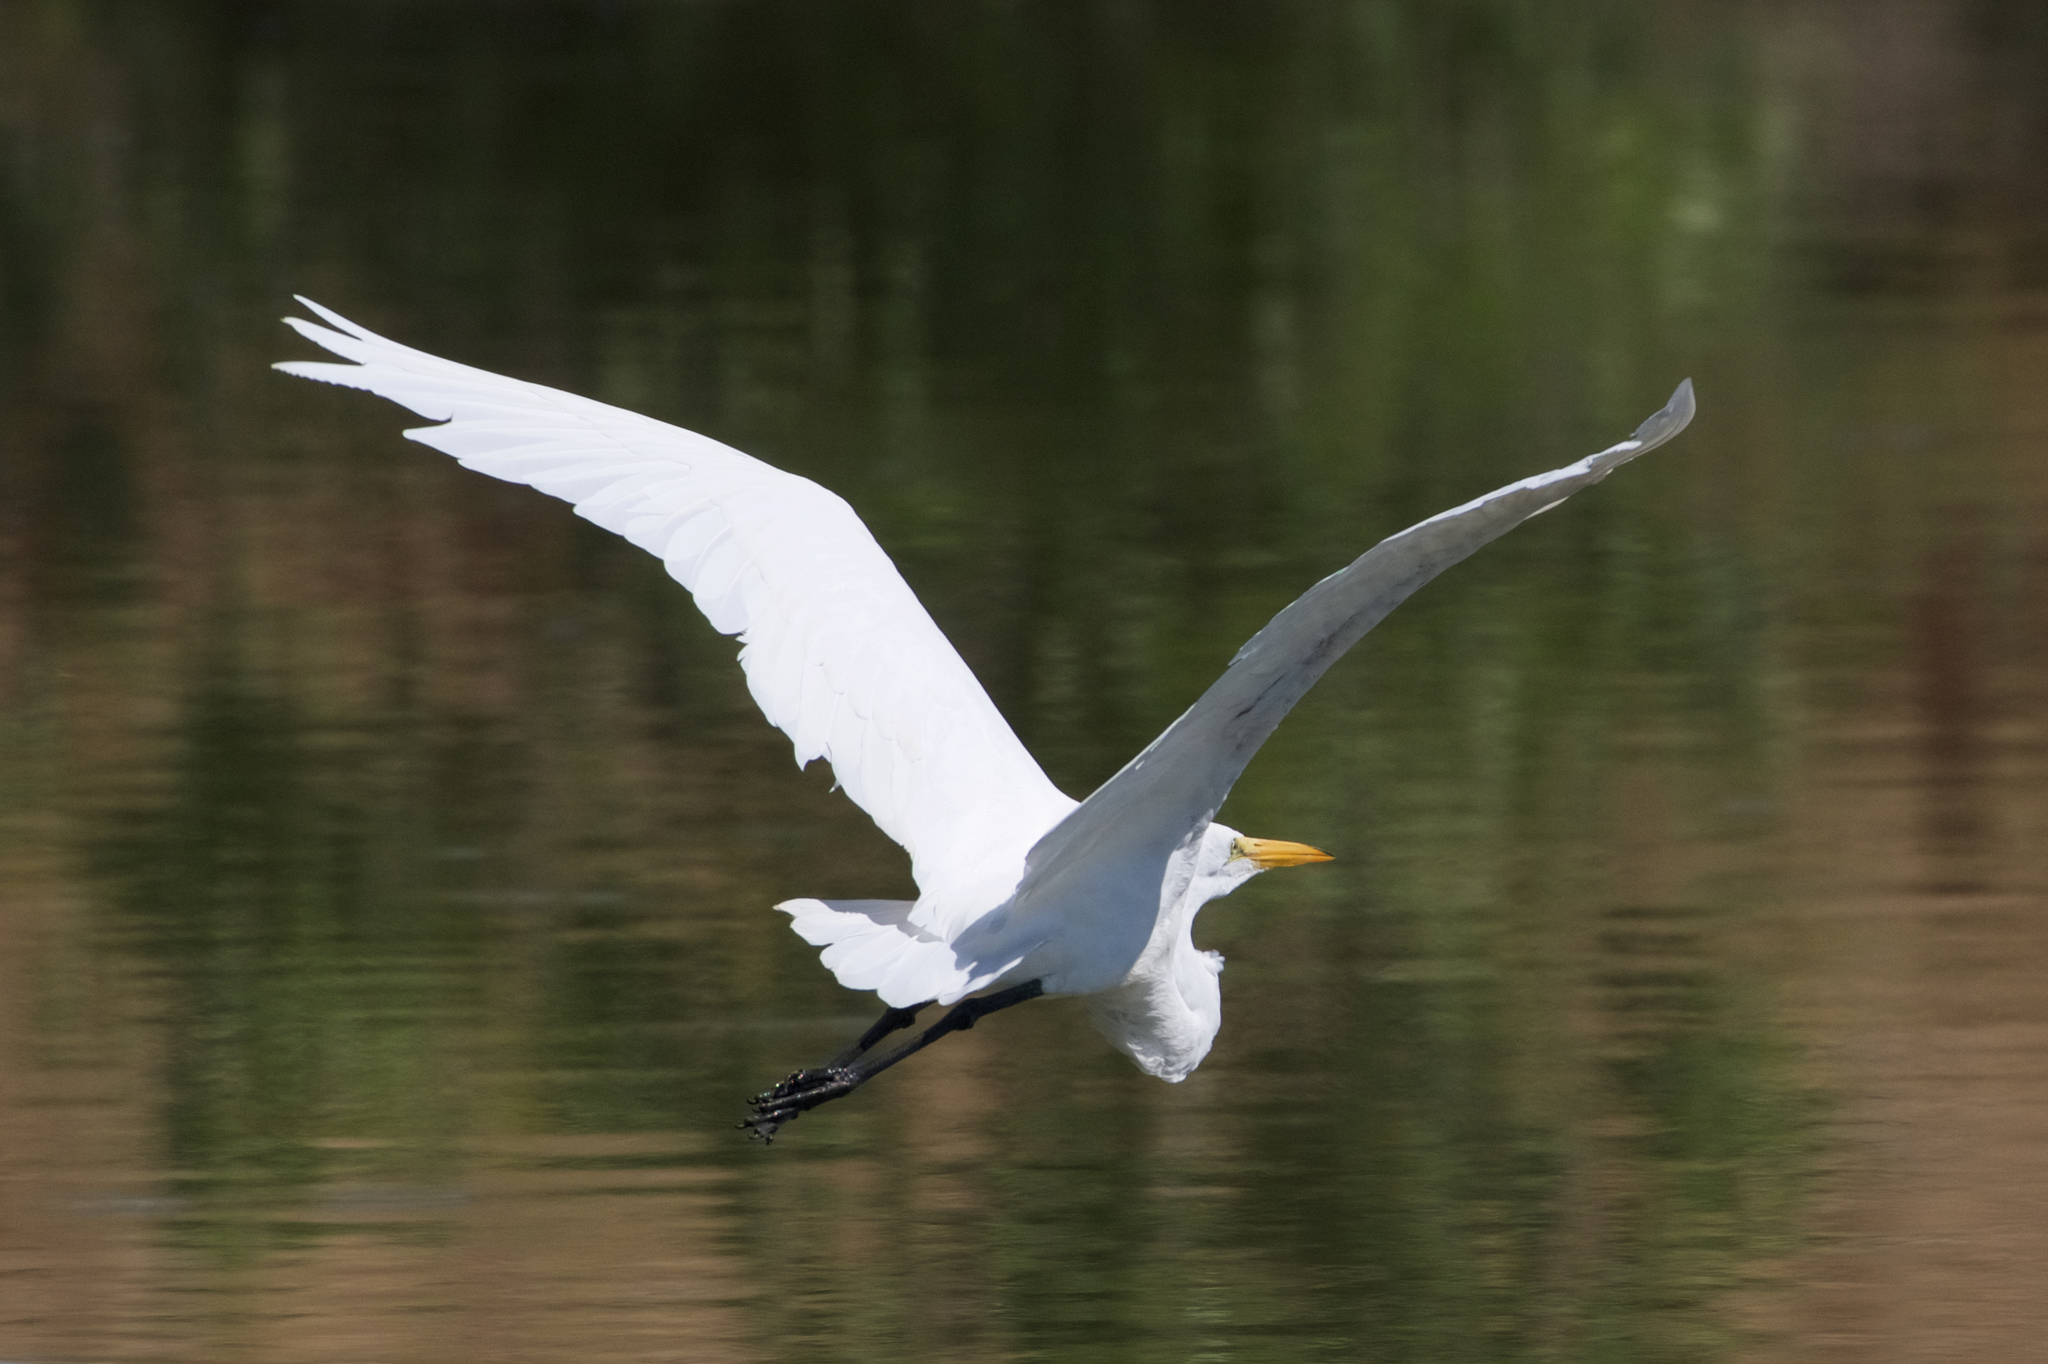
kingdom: Animalia
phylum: Chordata
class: Aves
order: Pelecaniformes
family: Ardeidae
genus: Ardea
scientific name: Ardea alba
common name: Great egret
